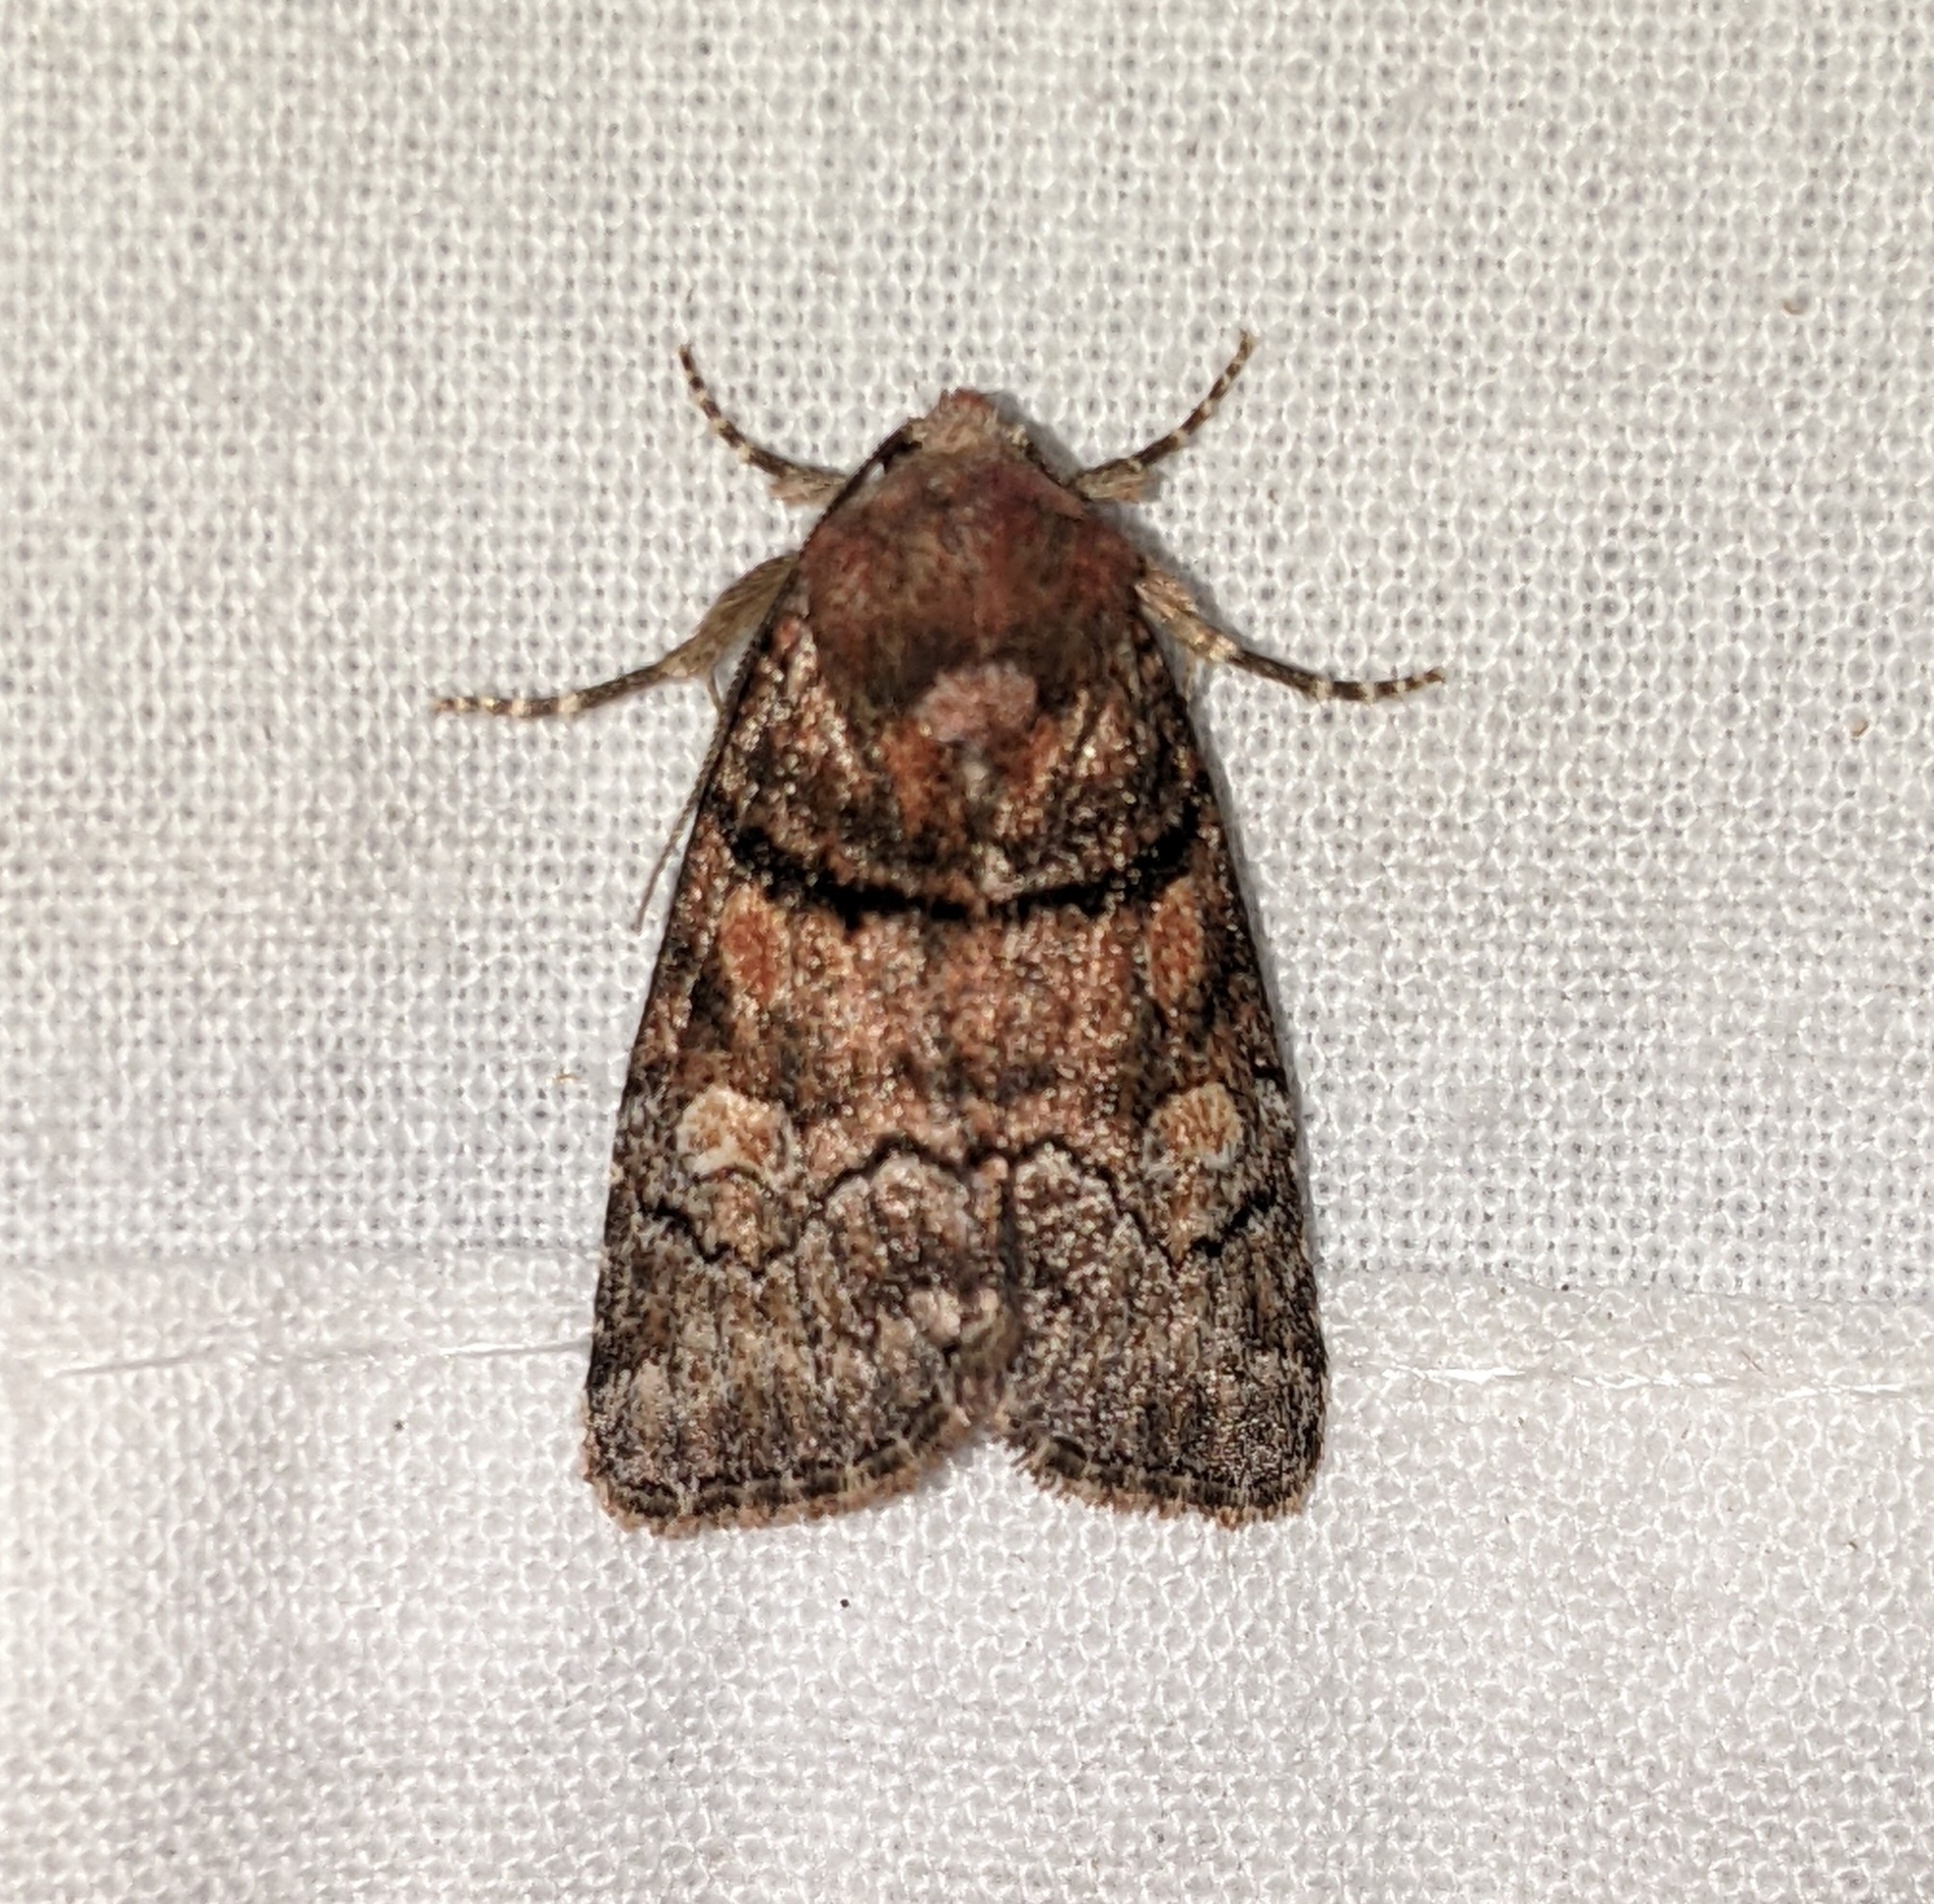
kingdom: Animalia
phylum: Arthropoda
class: Insecta
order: Lepidoptera
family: Noctuidae
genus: Cosmia
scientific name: Cosmia praeacuta
